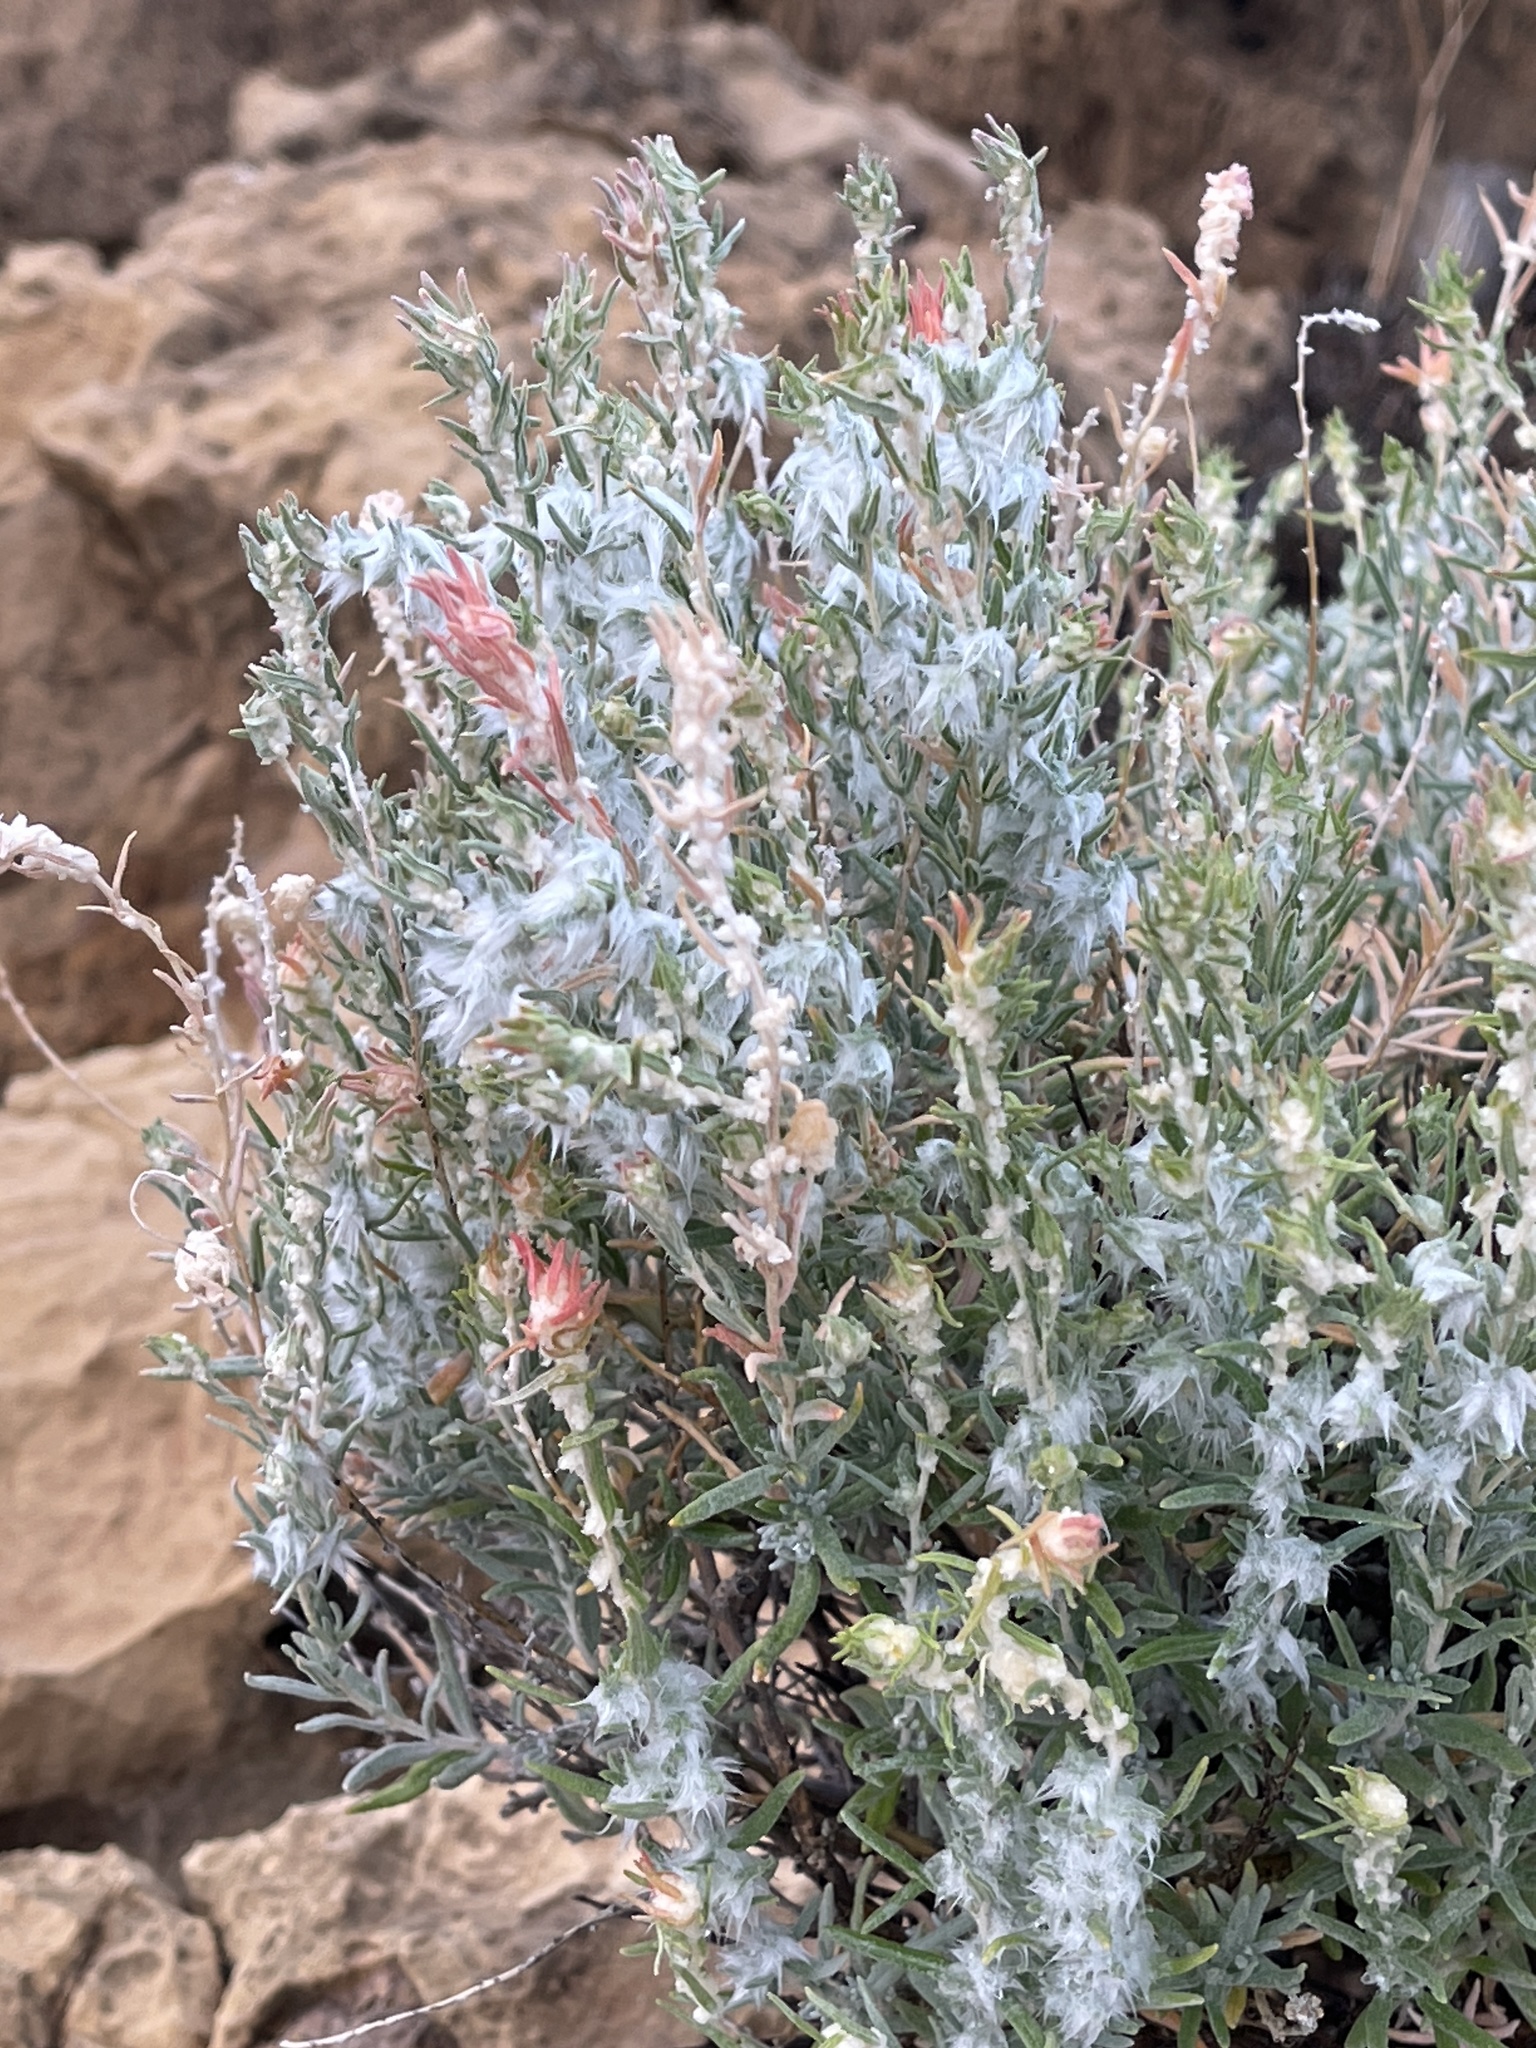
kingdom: Plantae
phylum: Tracheophyta
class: Magnoliopsida
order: Caryophyllales
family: Amaranthaceae
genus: Krascheninnikovia
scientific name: Krascheninnikovia lanata
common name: Winterfat
